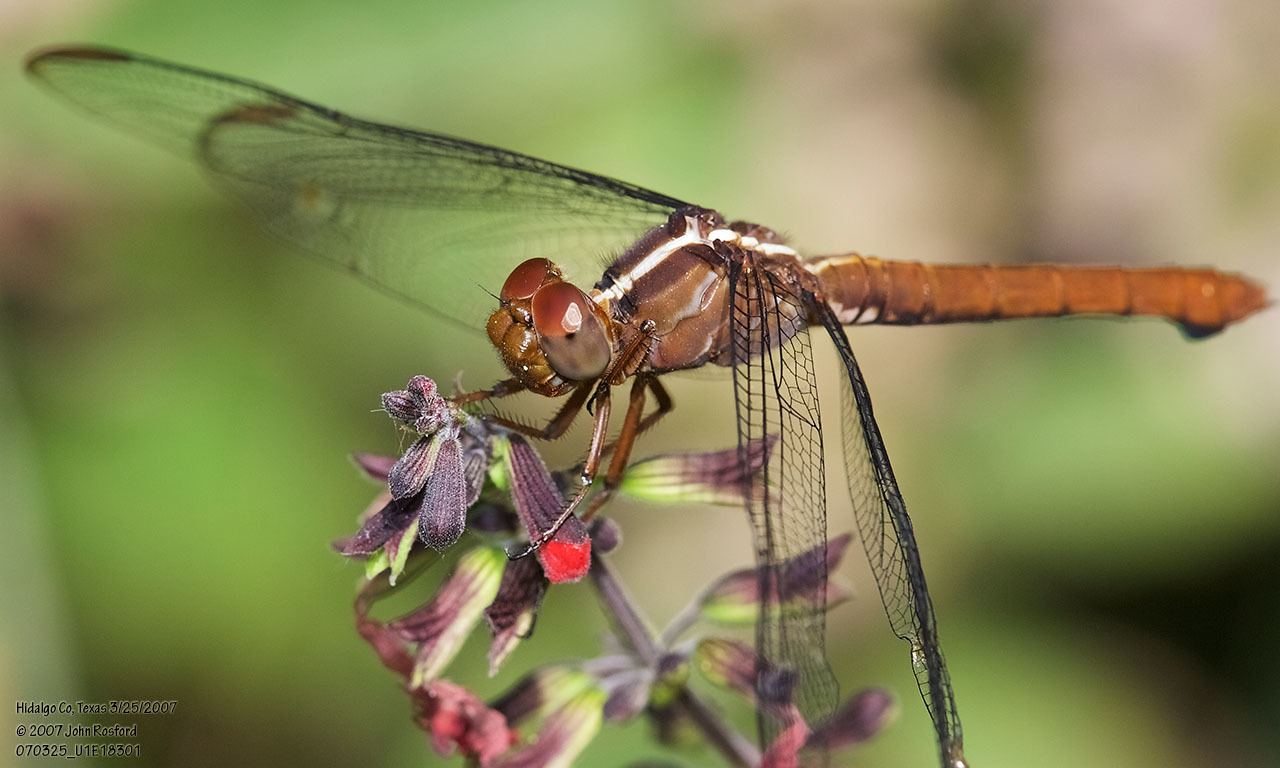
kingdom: Animalia
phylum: Arthropoda
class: Insecta
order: Odonata
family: Libellulidae
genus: Orthemis
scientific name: Orthemis discolor
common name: Carmine skimmer
